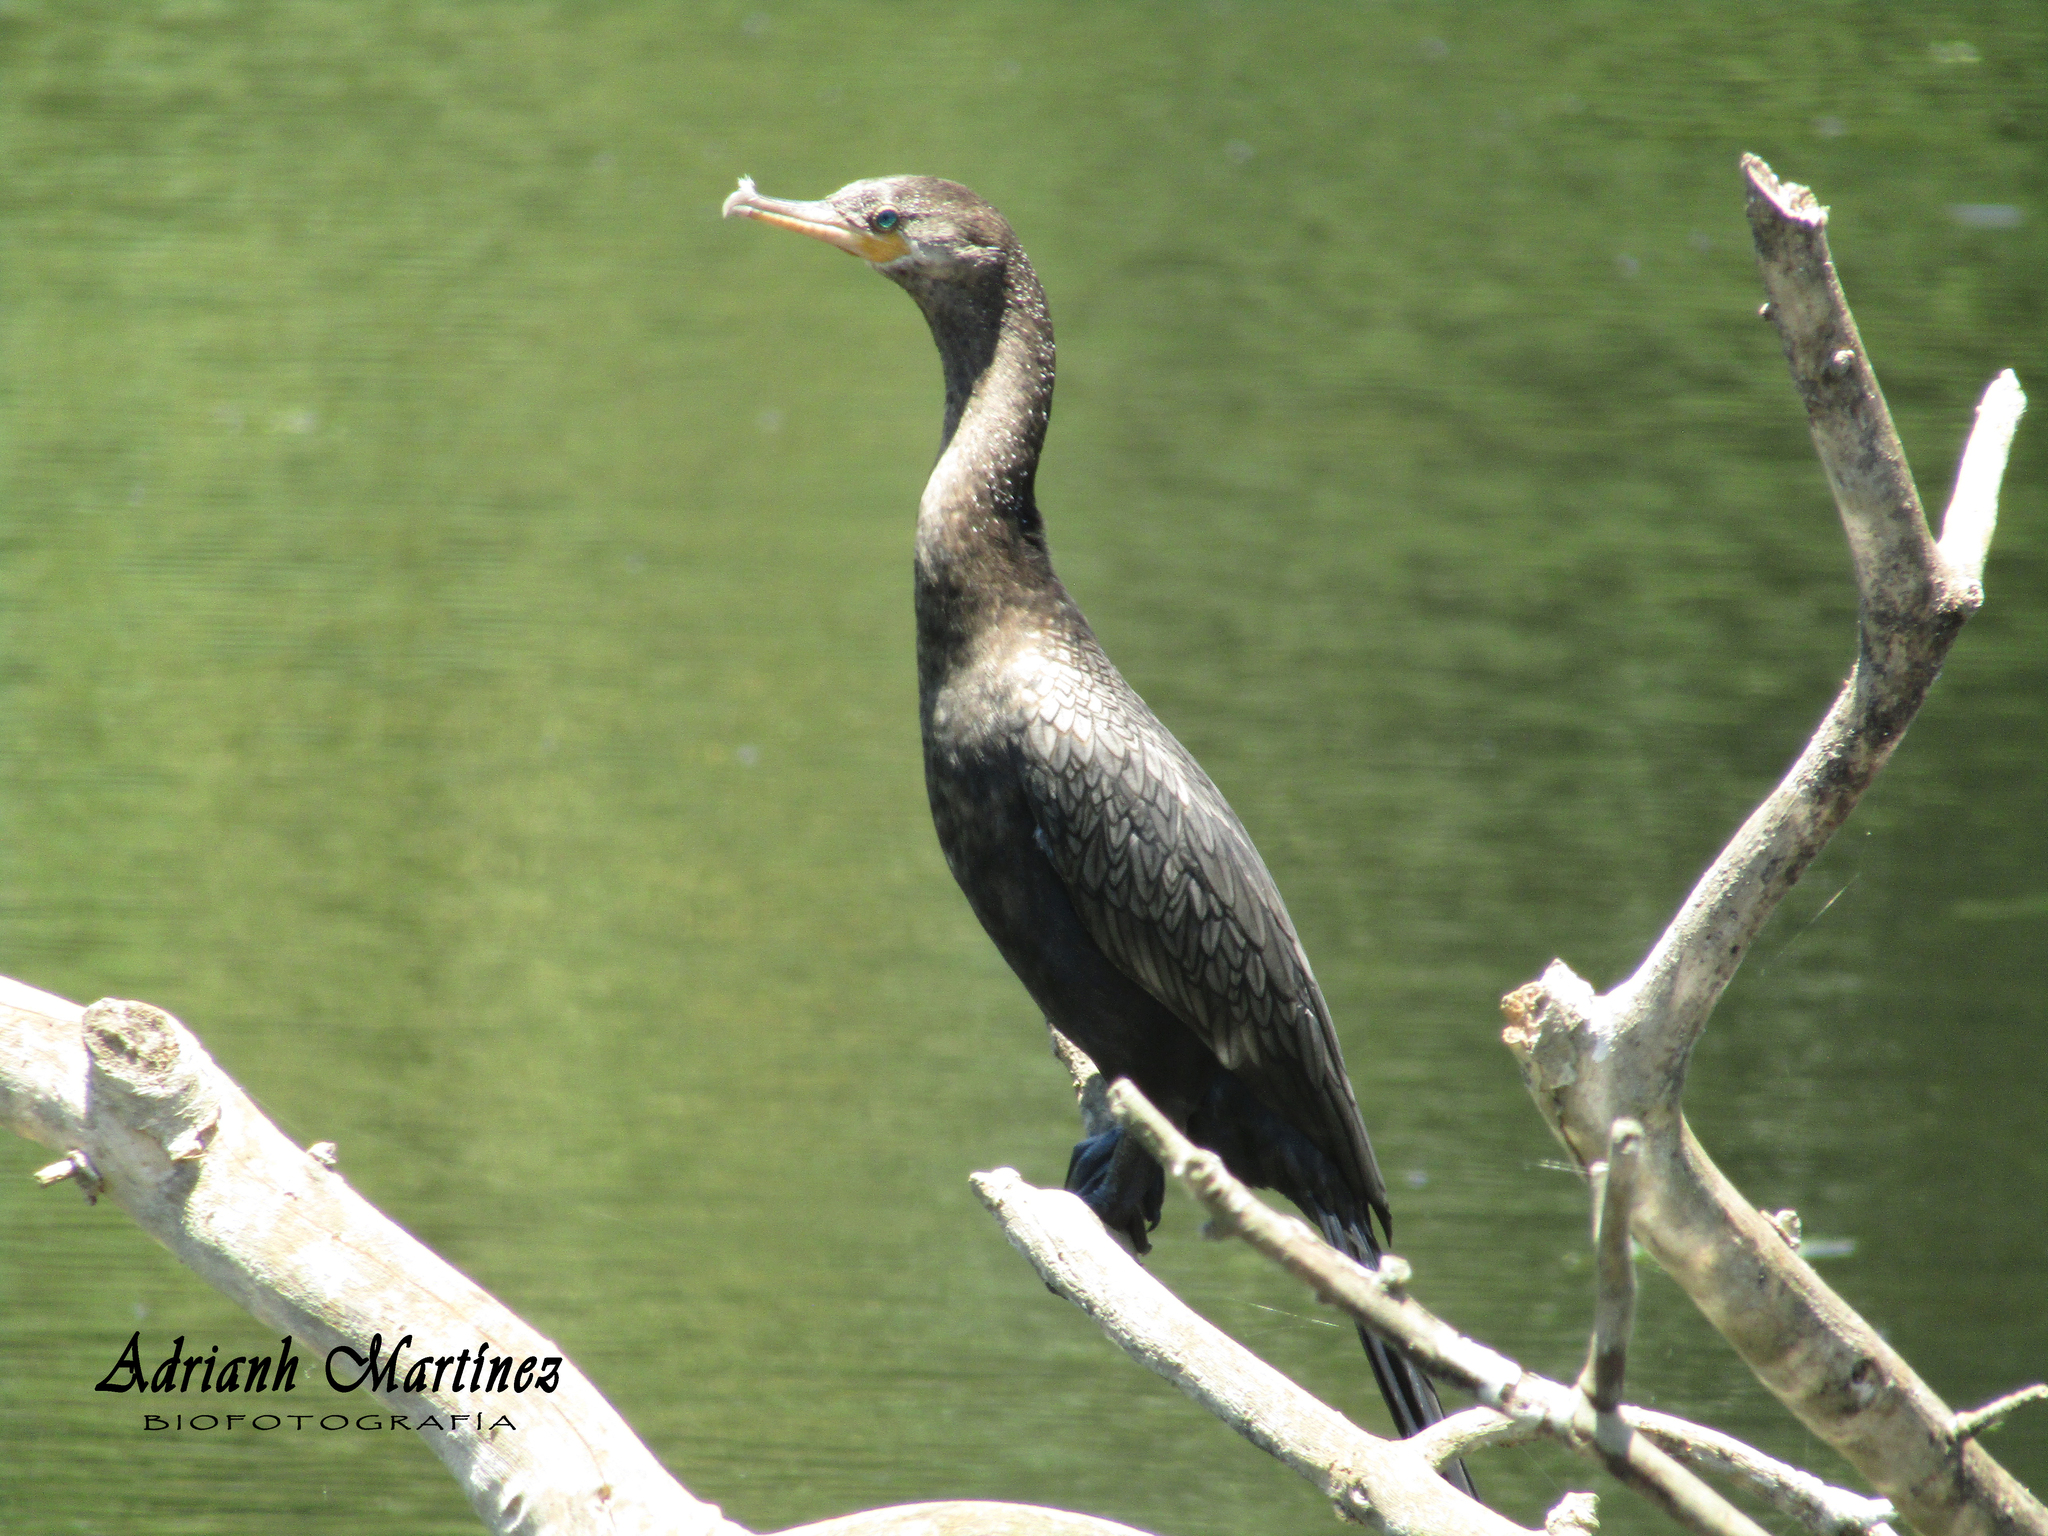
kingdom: Animalia
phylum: Chordata
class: Aves
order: Suliformes
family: Phalacrocoracidae
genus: Phalacrocorax
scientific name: Phalacrocorax brasilianus
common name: Neotropic cormorant
